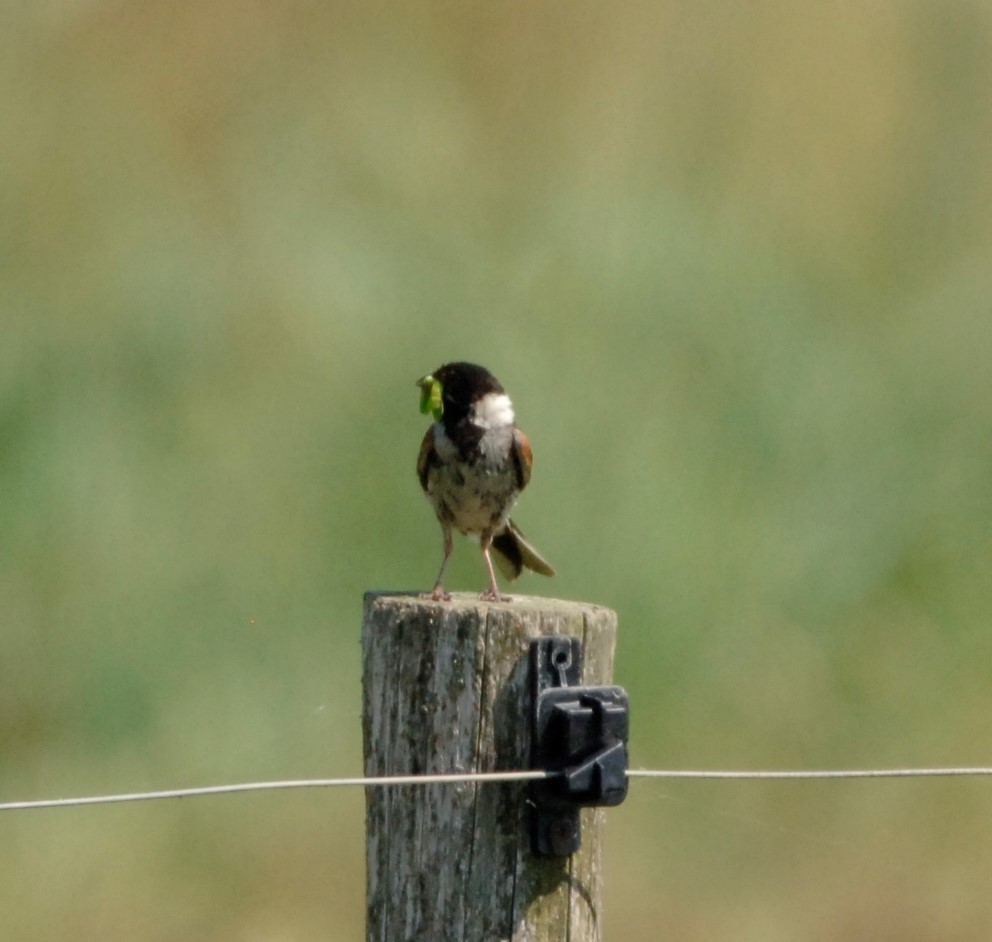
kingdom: Animalia
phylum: Chordata
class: Aves
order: Passeriformes
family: Emberizidae
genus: Emberiza
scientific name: Emberiza schoeniclus
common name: Reed bunting
